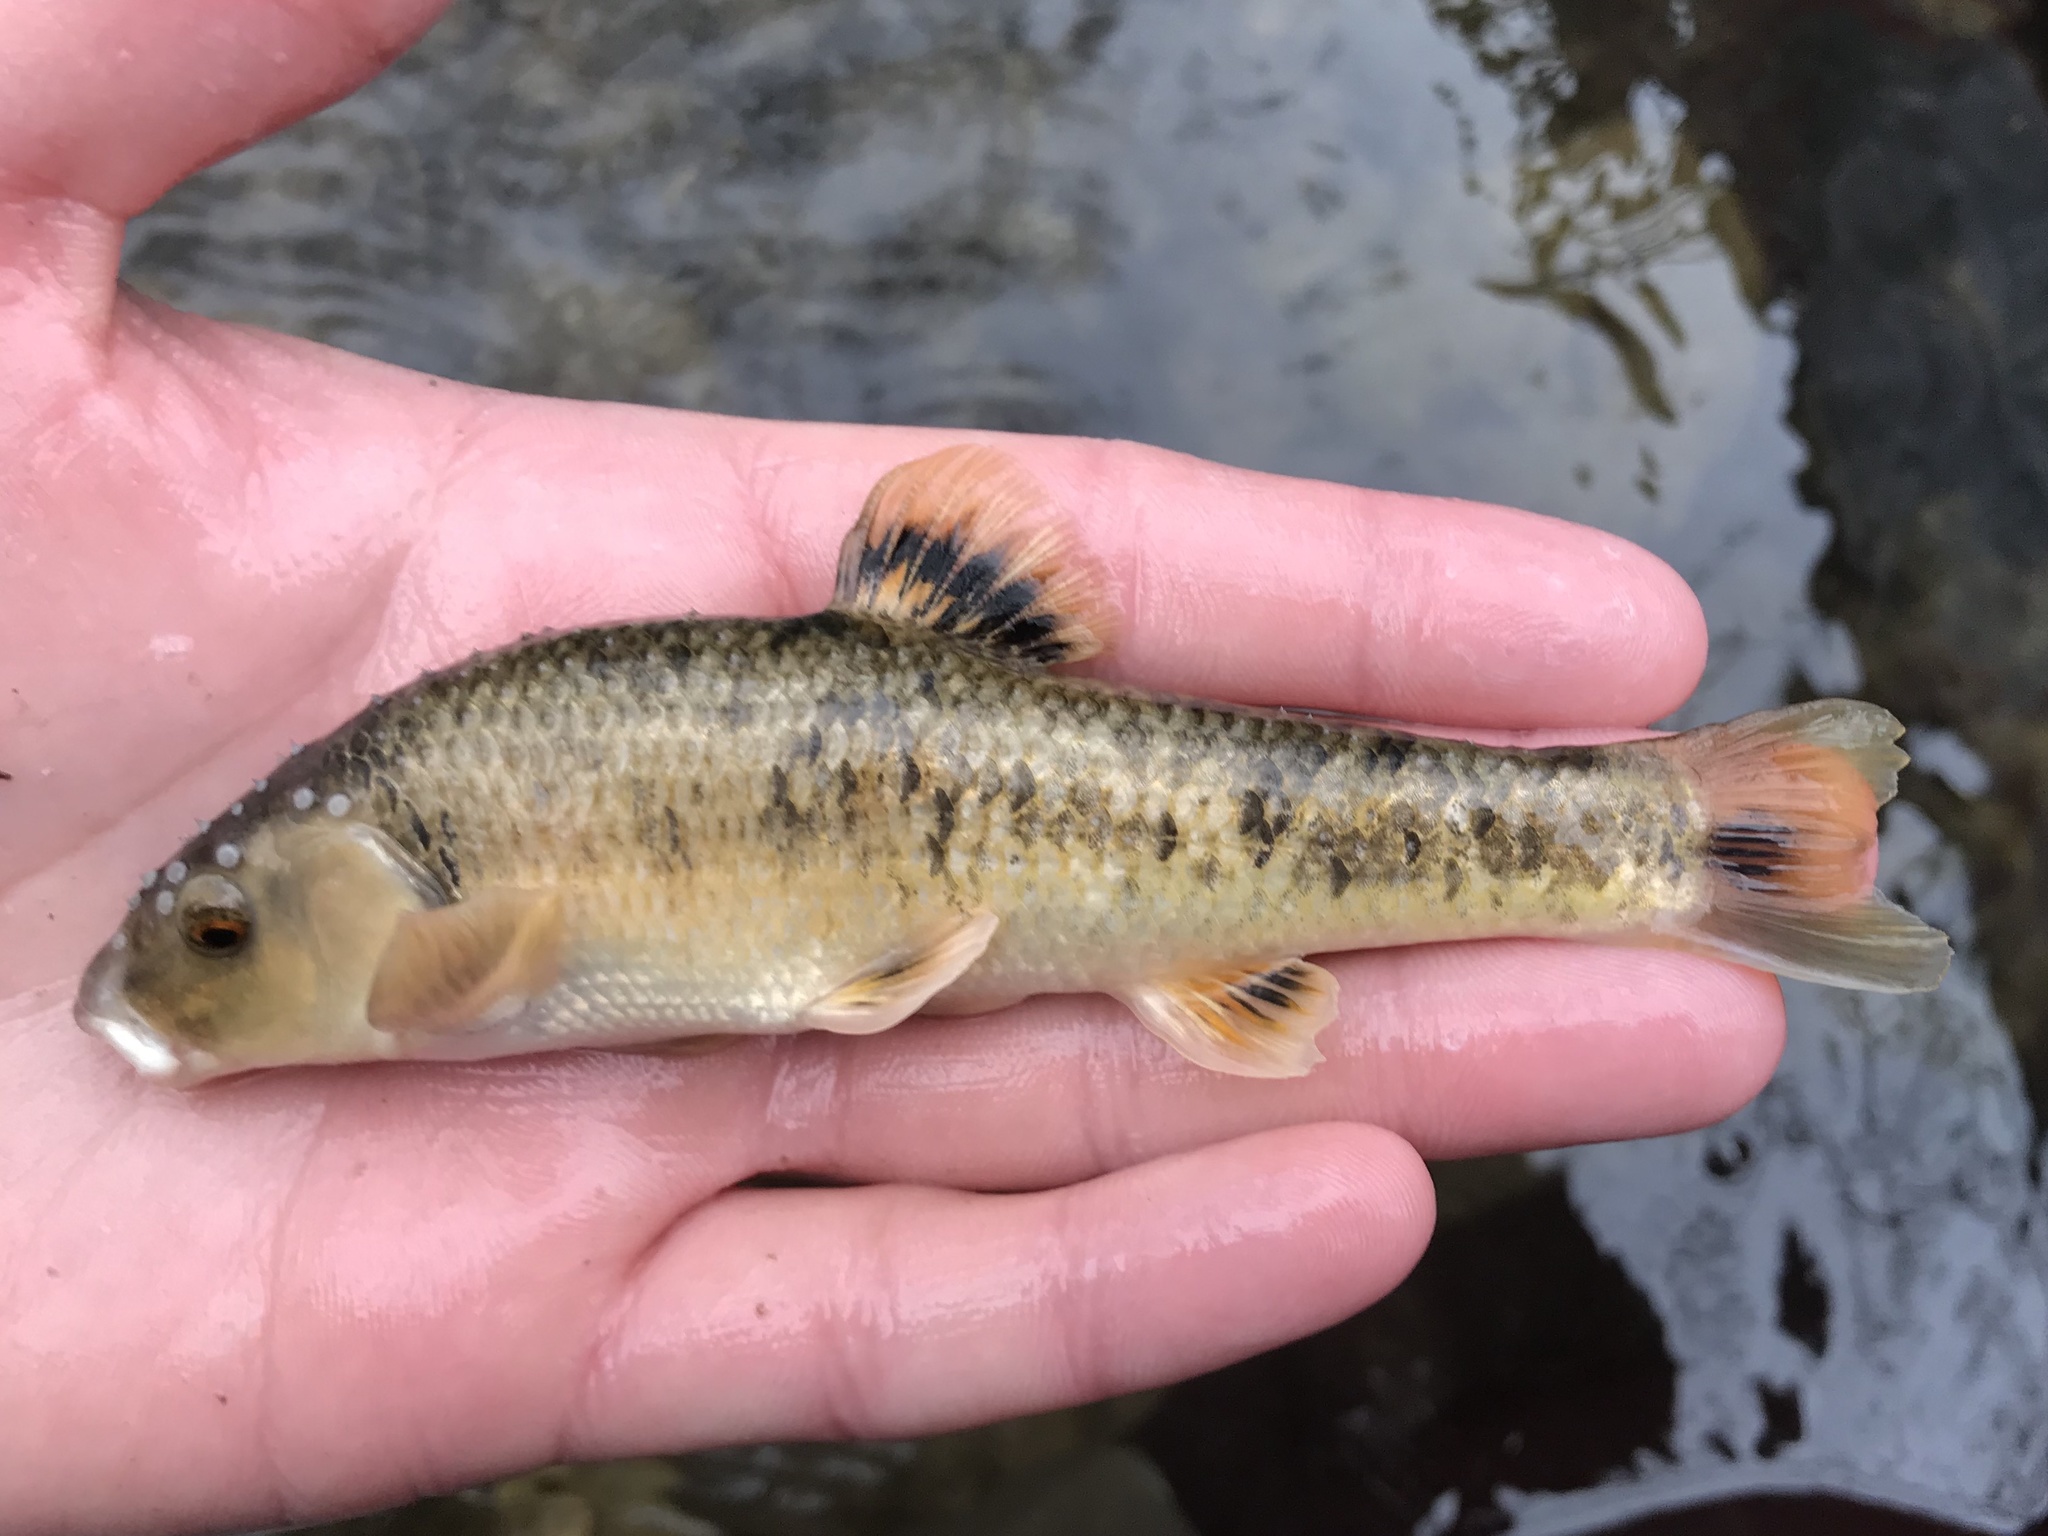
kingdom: Animalia
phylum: Chordata
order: Cypriniformes
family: Cyprinidae
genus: Campostoma
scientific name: Campostoma anomalum
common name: Central stoneroller
